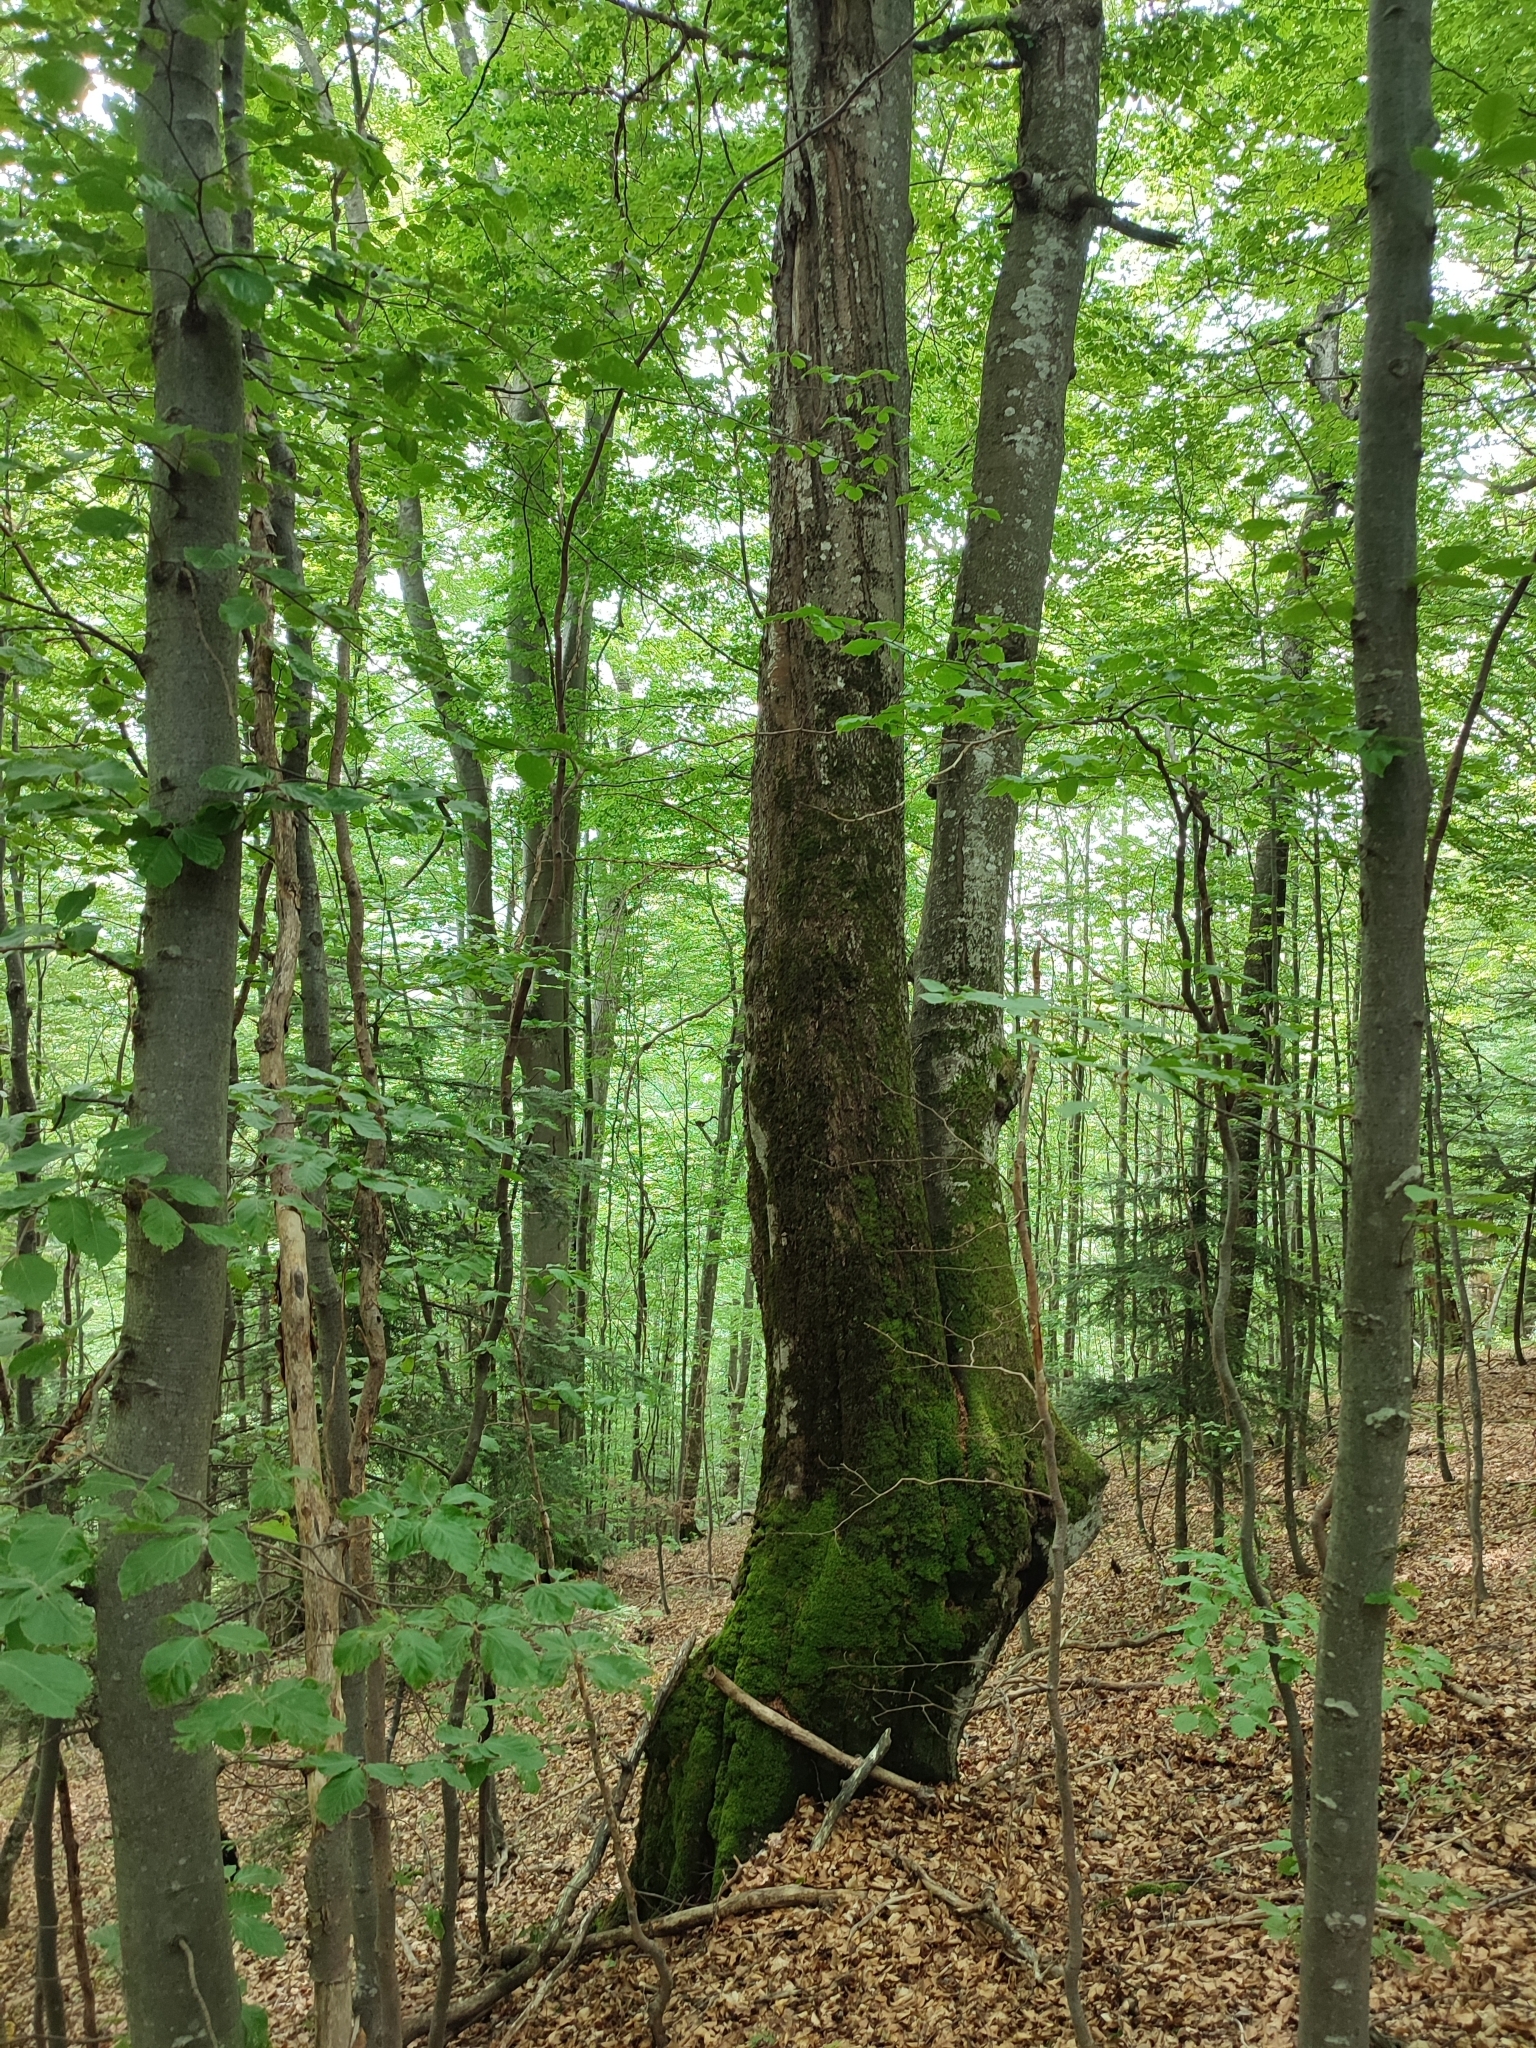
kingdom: Plantae
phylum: Tracheophyta
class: Magnoliopsida
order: Fagales
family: Fagaceae
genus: Fagus
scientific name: Fagus sylvatica
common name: Beech
